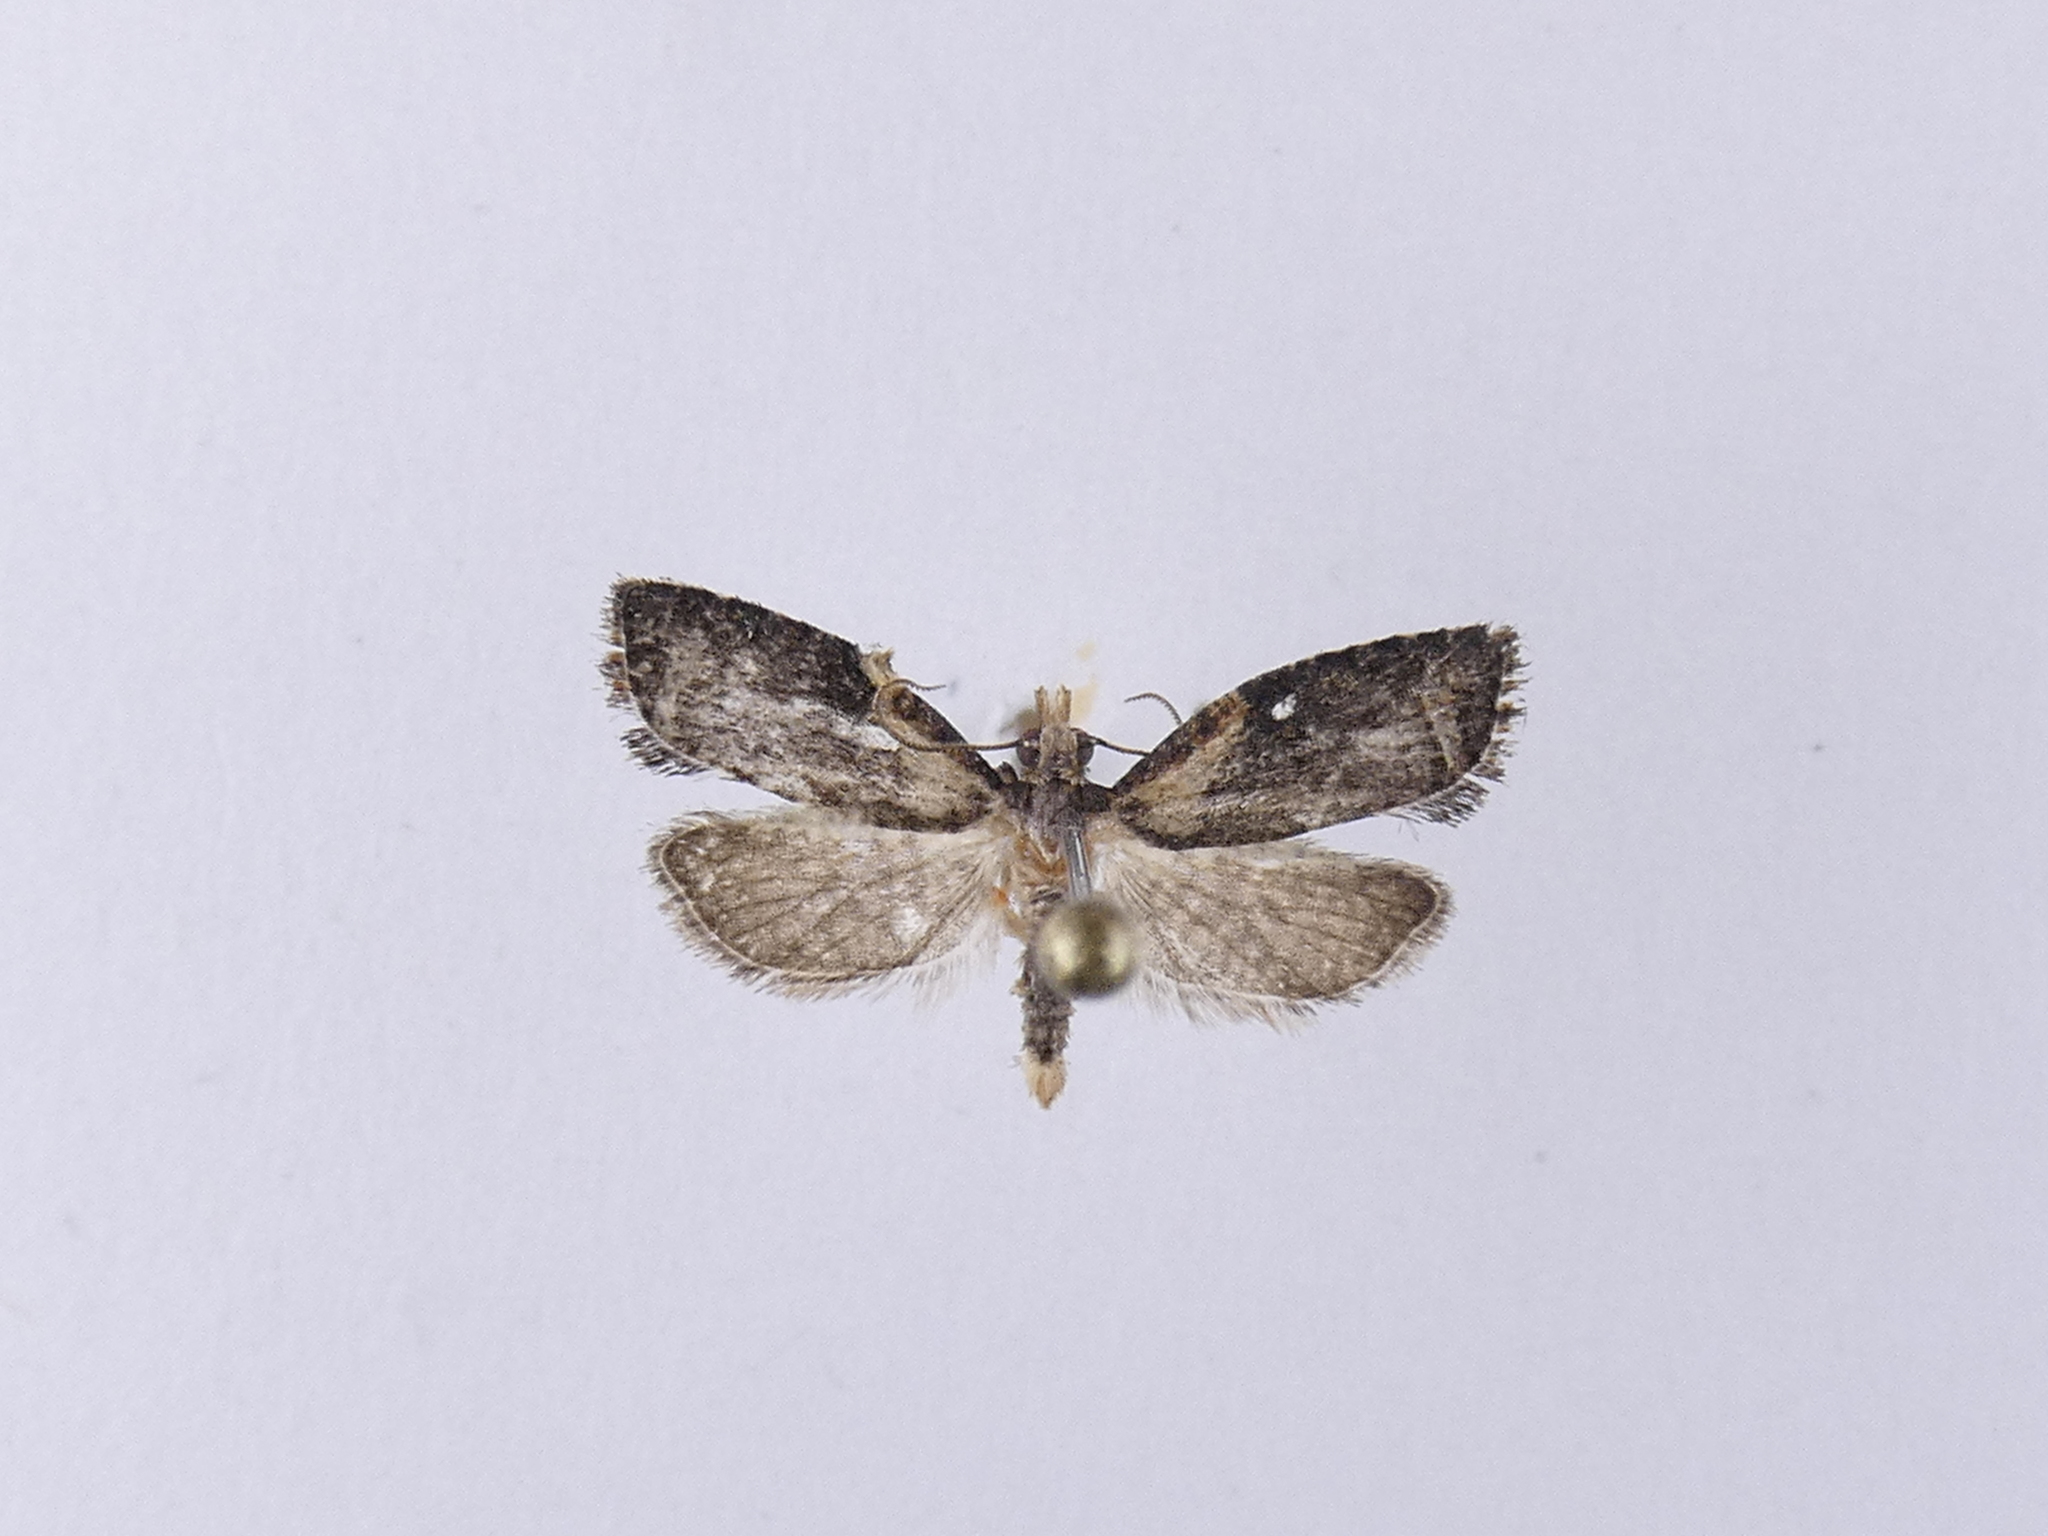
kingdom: Animalia
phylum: Arthropoda
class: Insecta
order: Lepidoptera
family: Tortricidae
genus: Capua
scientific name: Capua intractana
